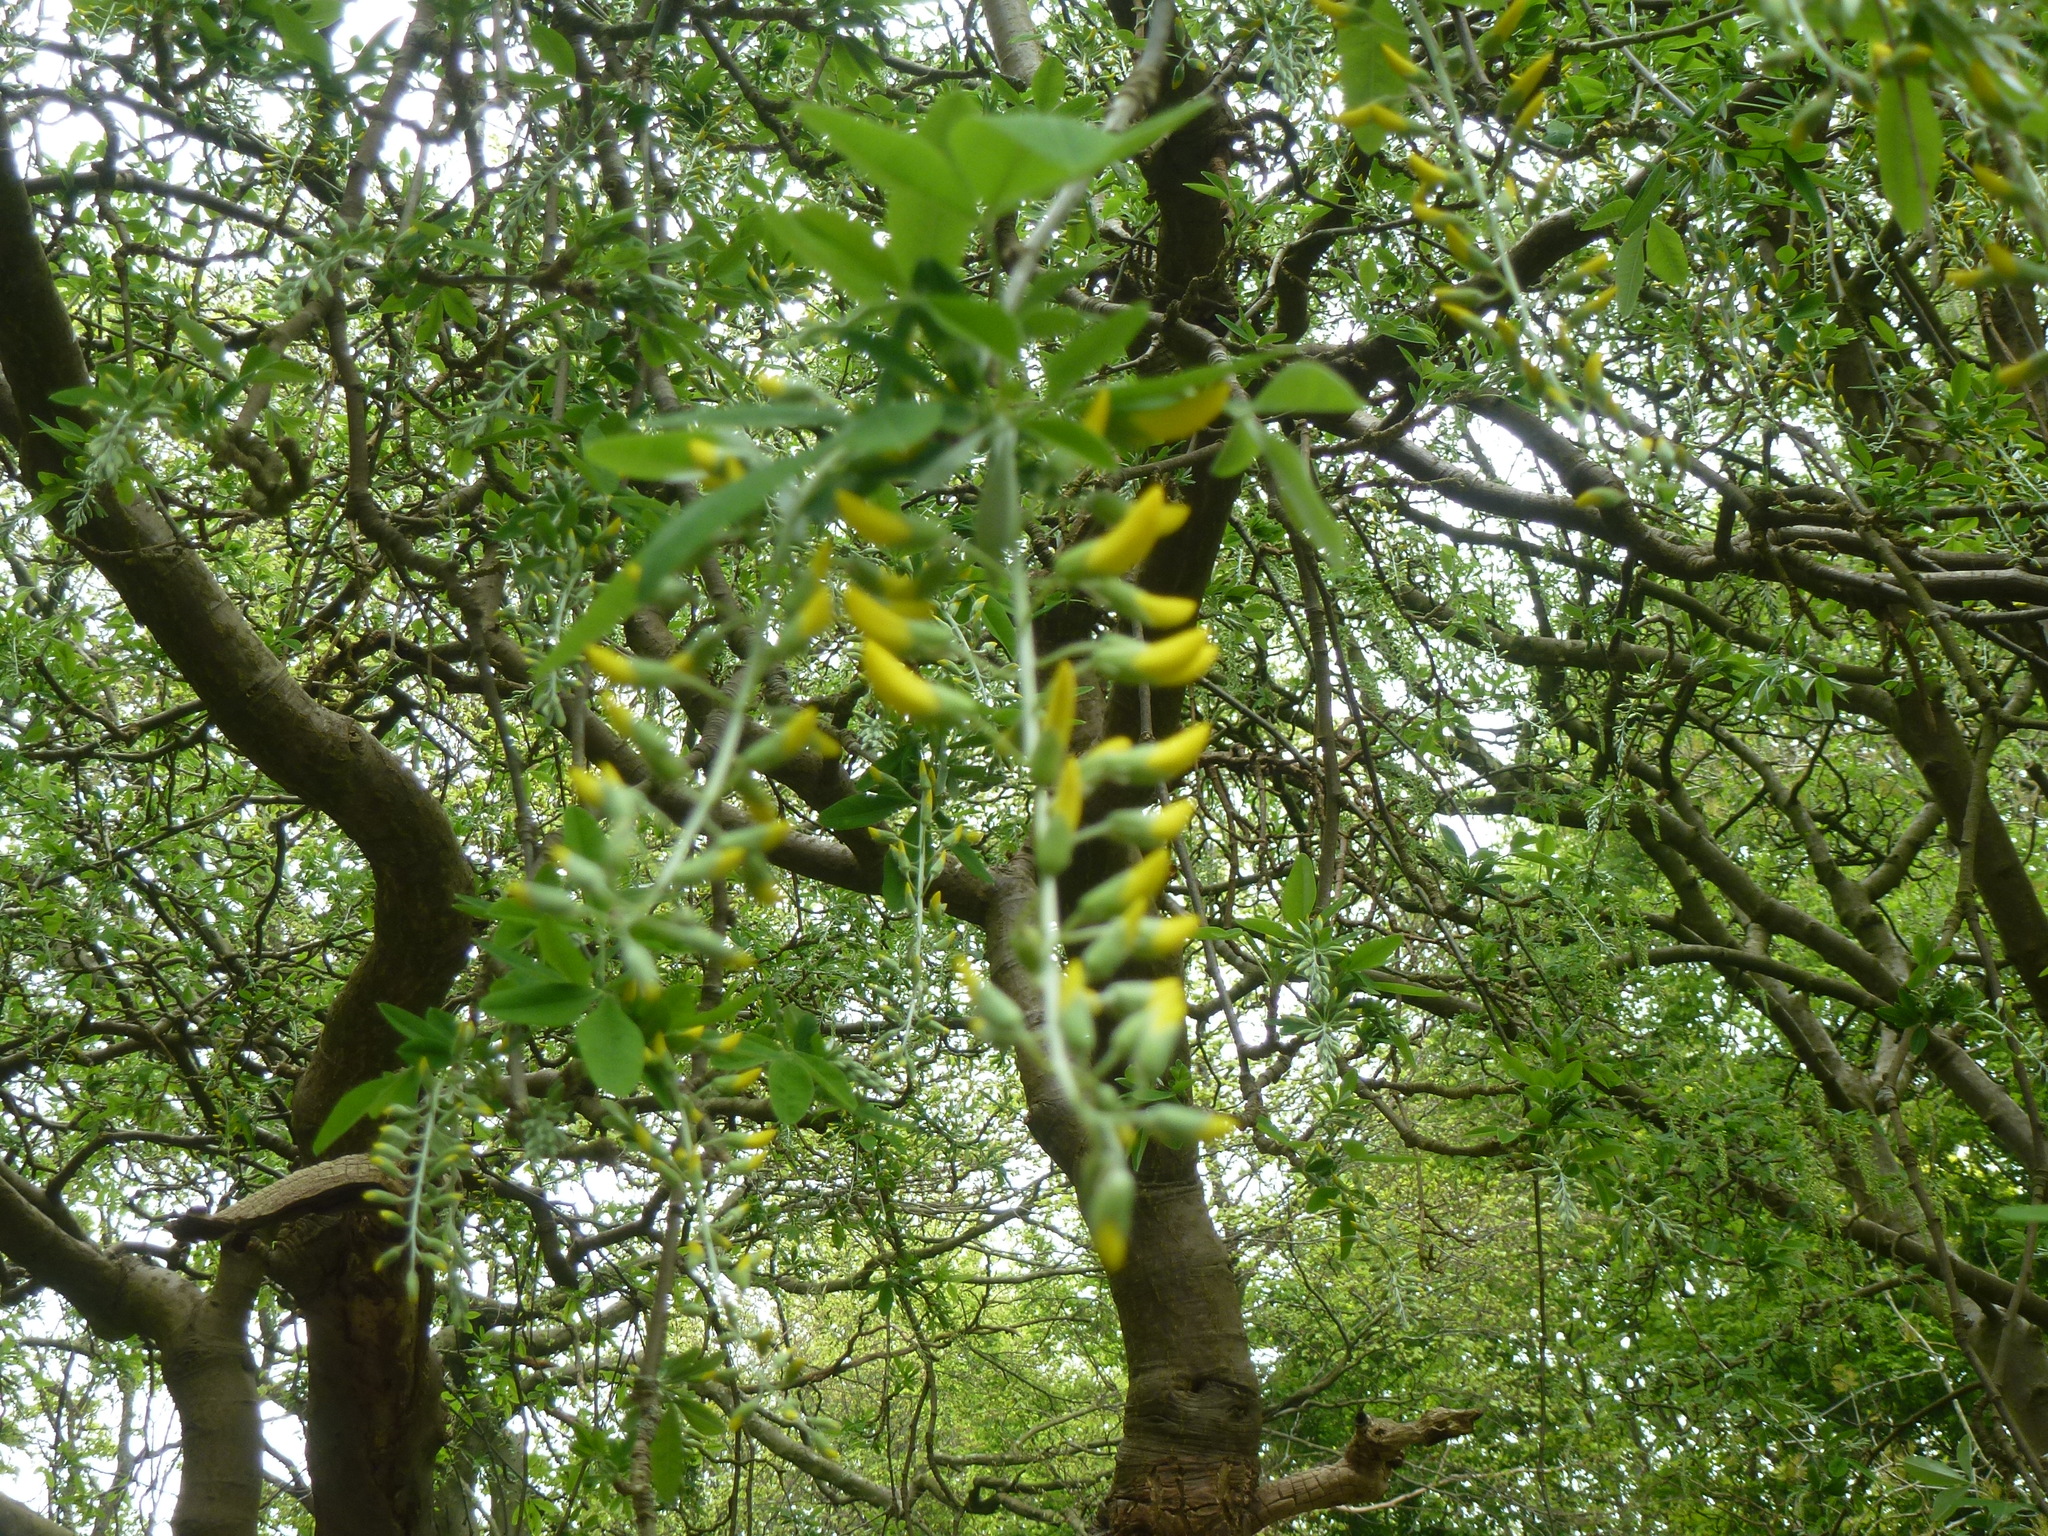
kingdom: Plantae
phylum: Tracheophyta
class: Magnoliopsida
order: Fabales
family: Fabaceae
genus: Laburnum
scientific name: Laburnum anagyroides
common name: Laburnum
